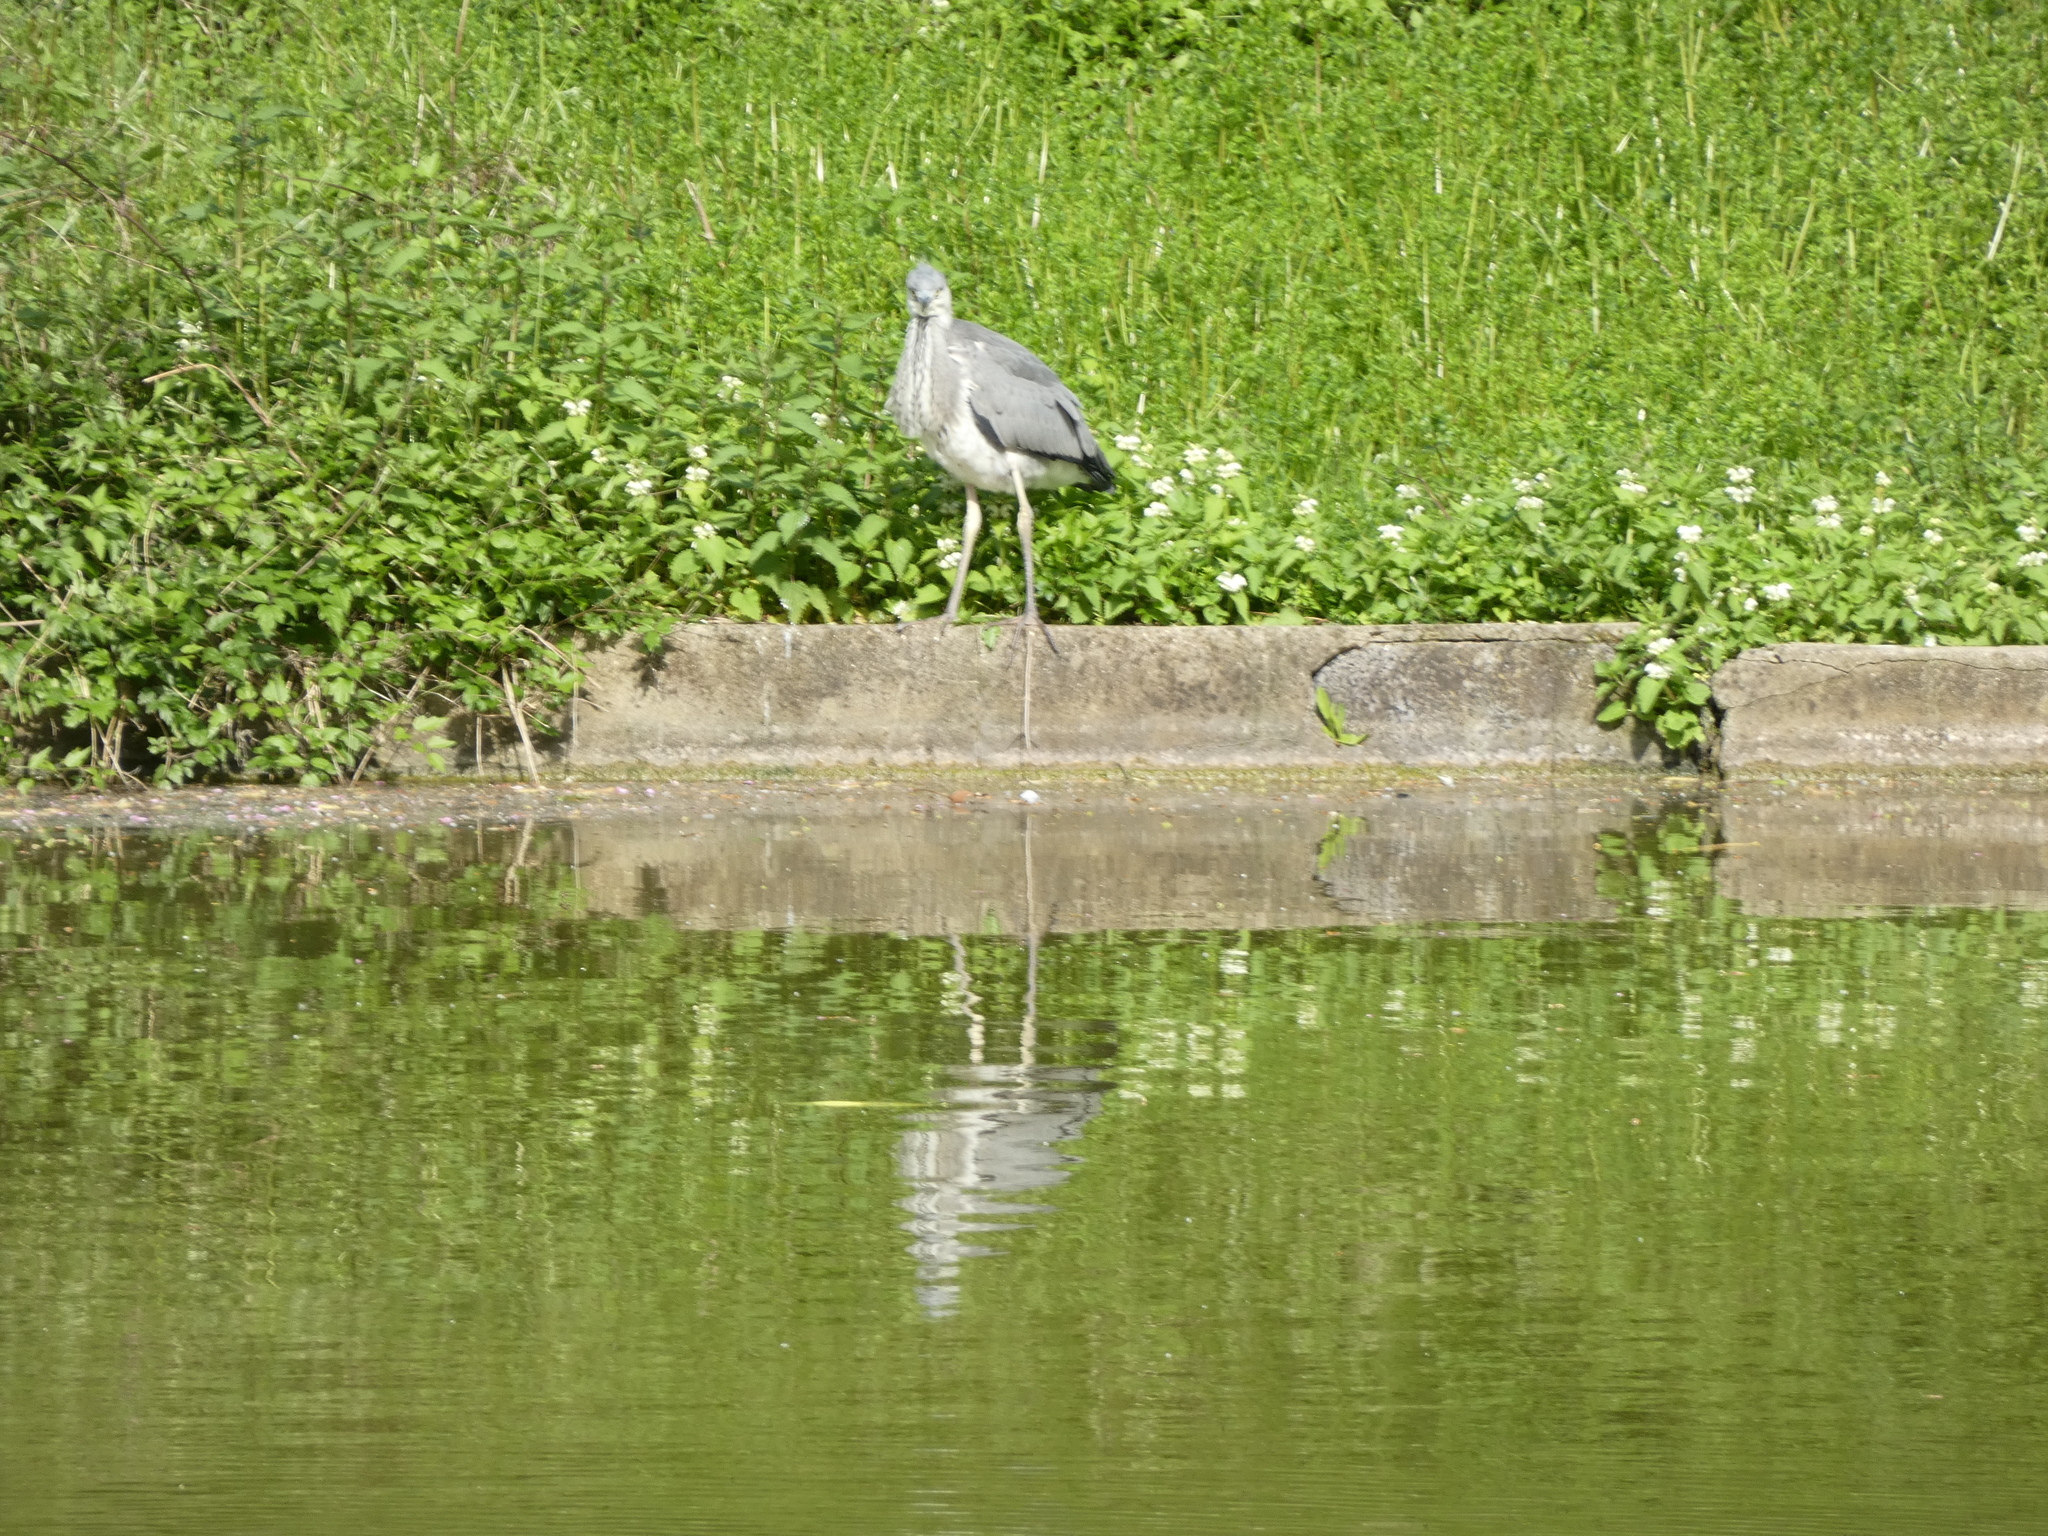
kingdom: Animalia
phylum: Chordata
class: Aves
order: Pelecaniformes
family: Ardeidae
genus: Ardea
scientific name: Ardea cinerea
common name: Grey heron
